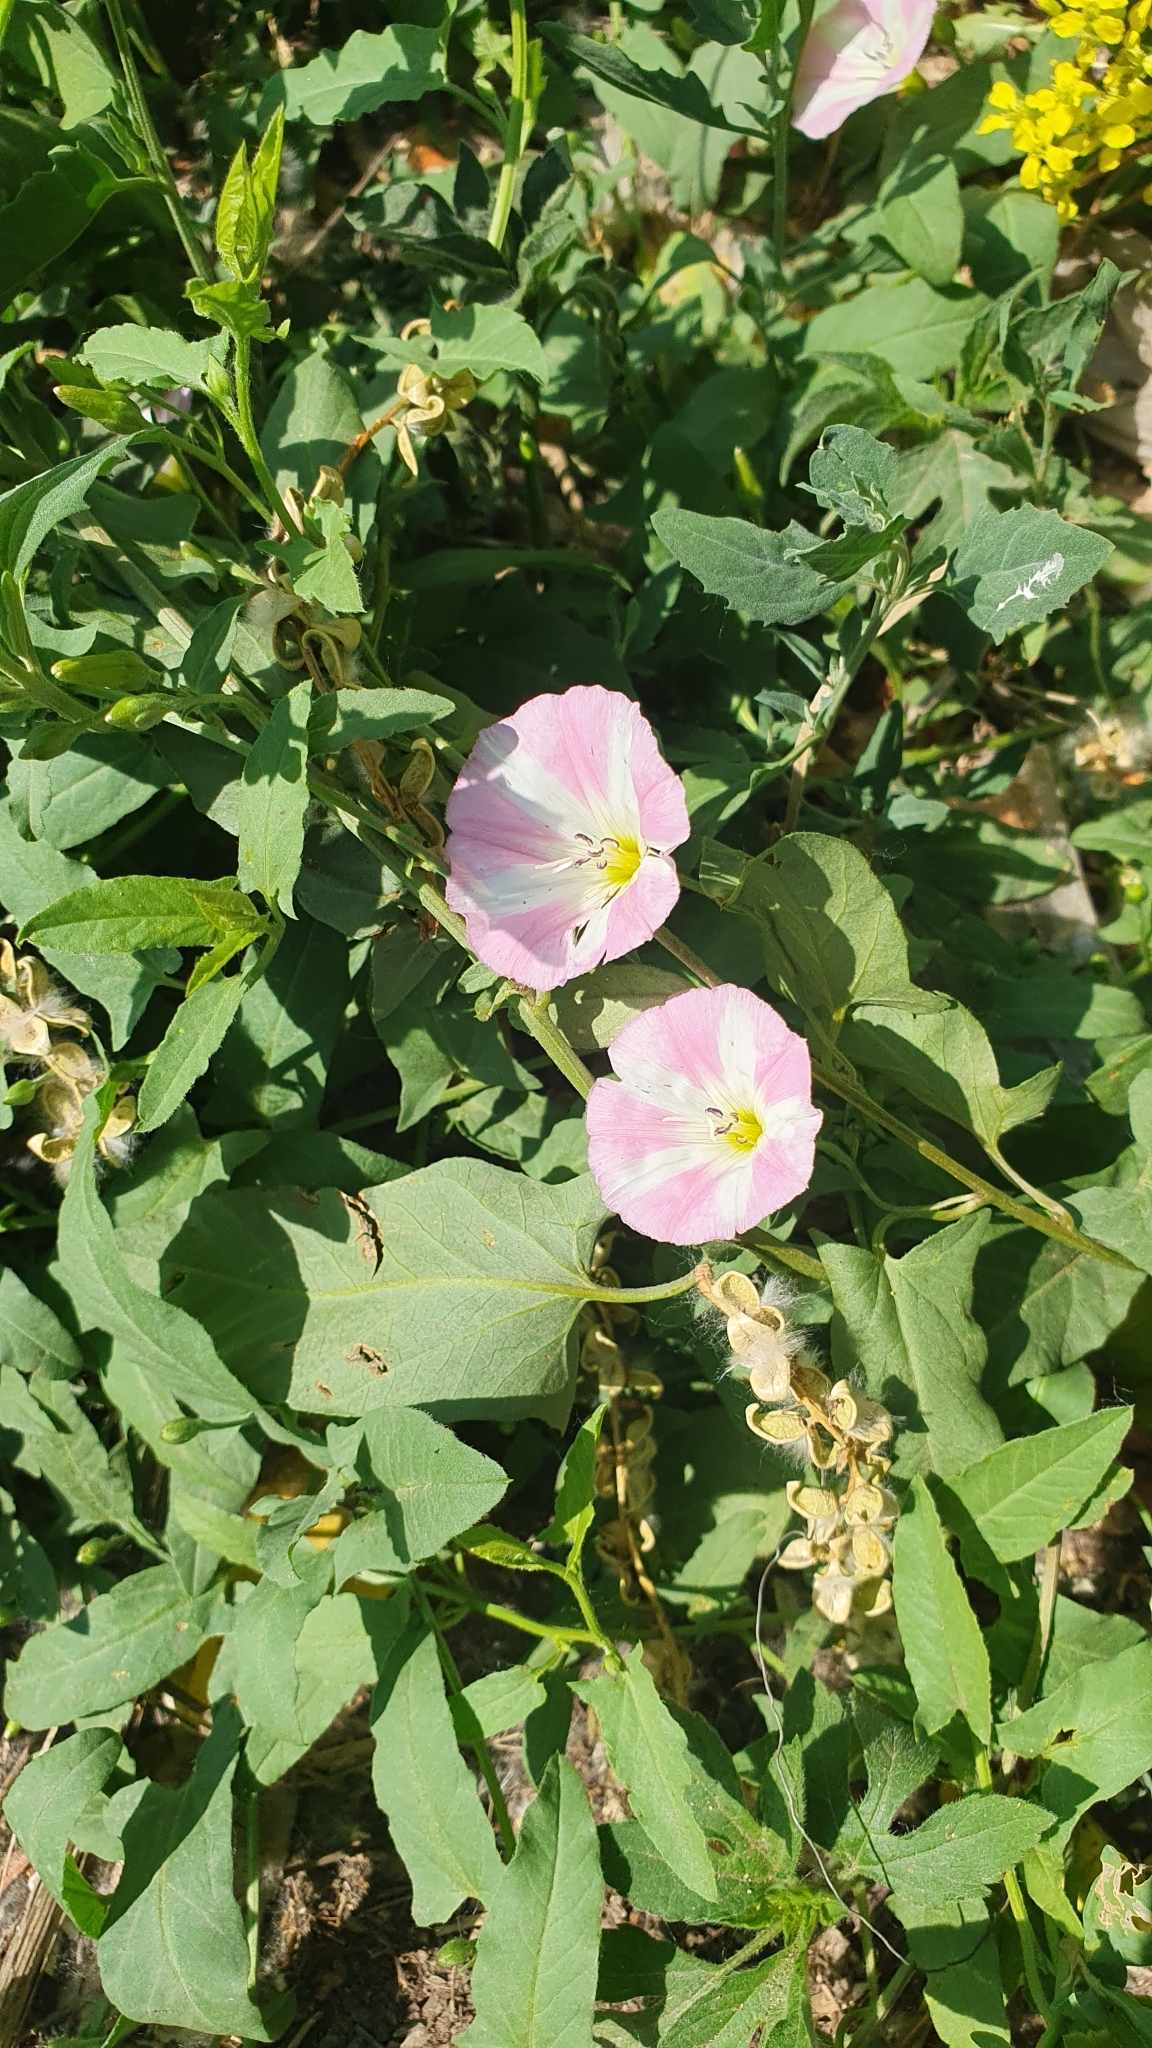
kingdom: Plantae
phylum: Tracheophyta
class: Magnoliopsida
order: Solanales
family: Convolvulaceae
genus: Convolvulus
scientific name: Convolvulus arvensis
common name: Field bindweed
